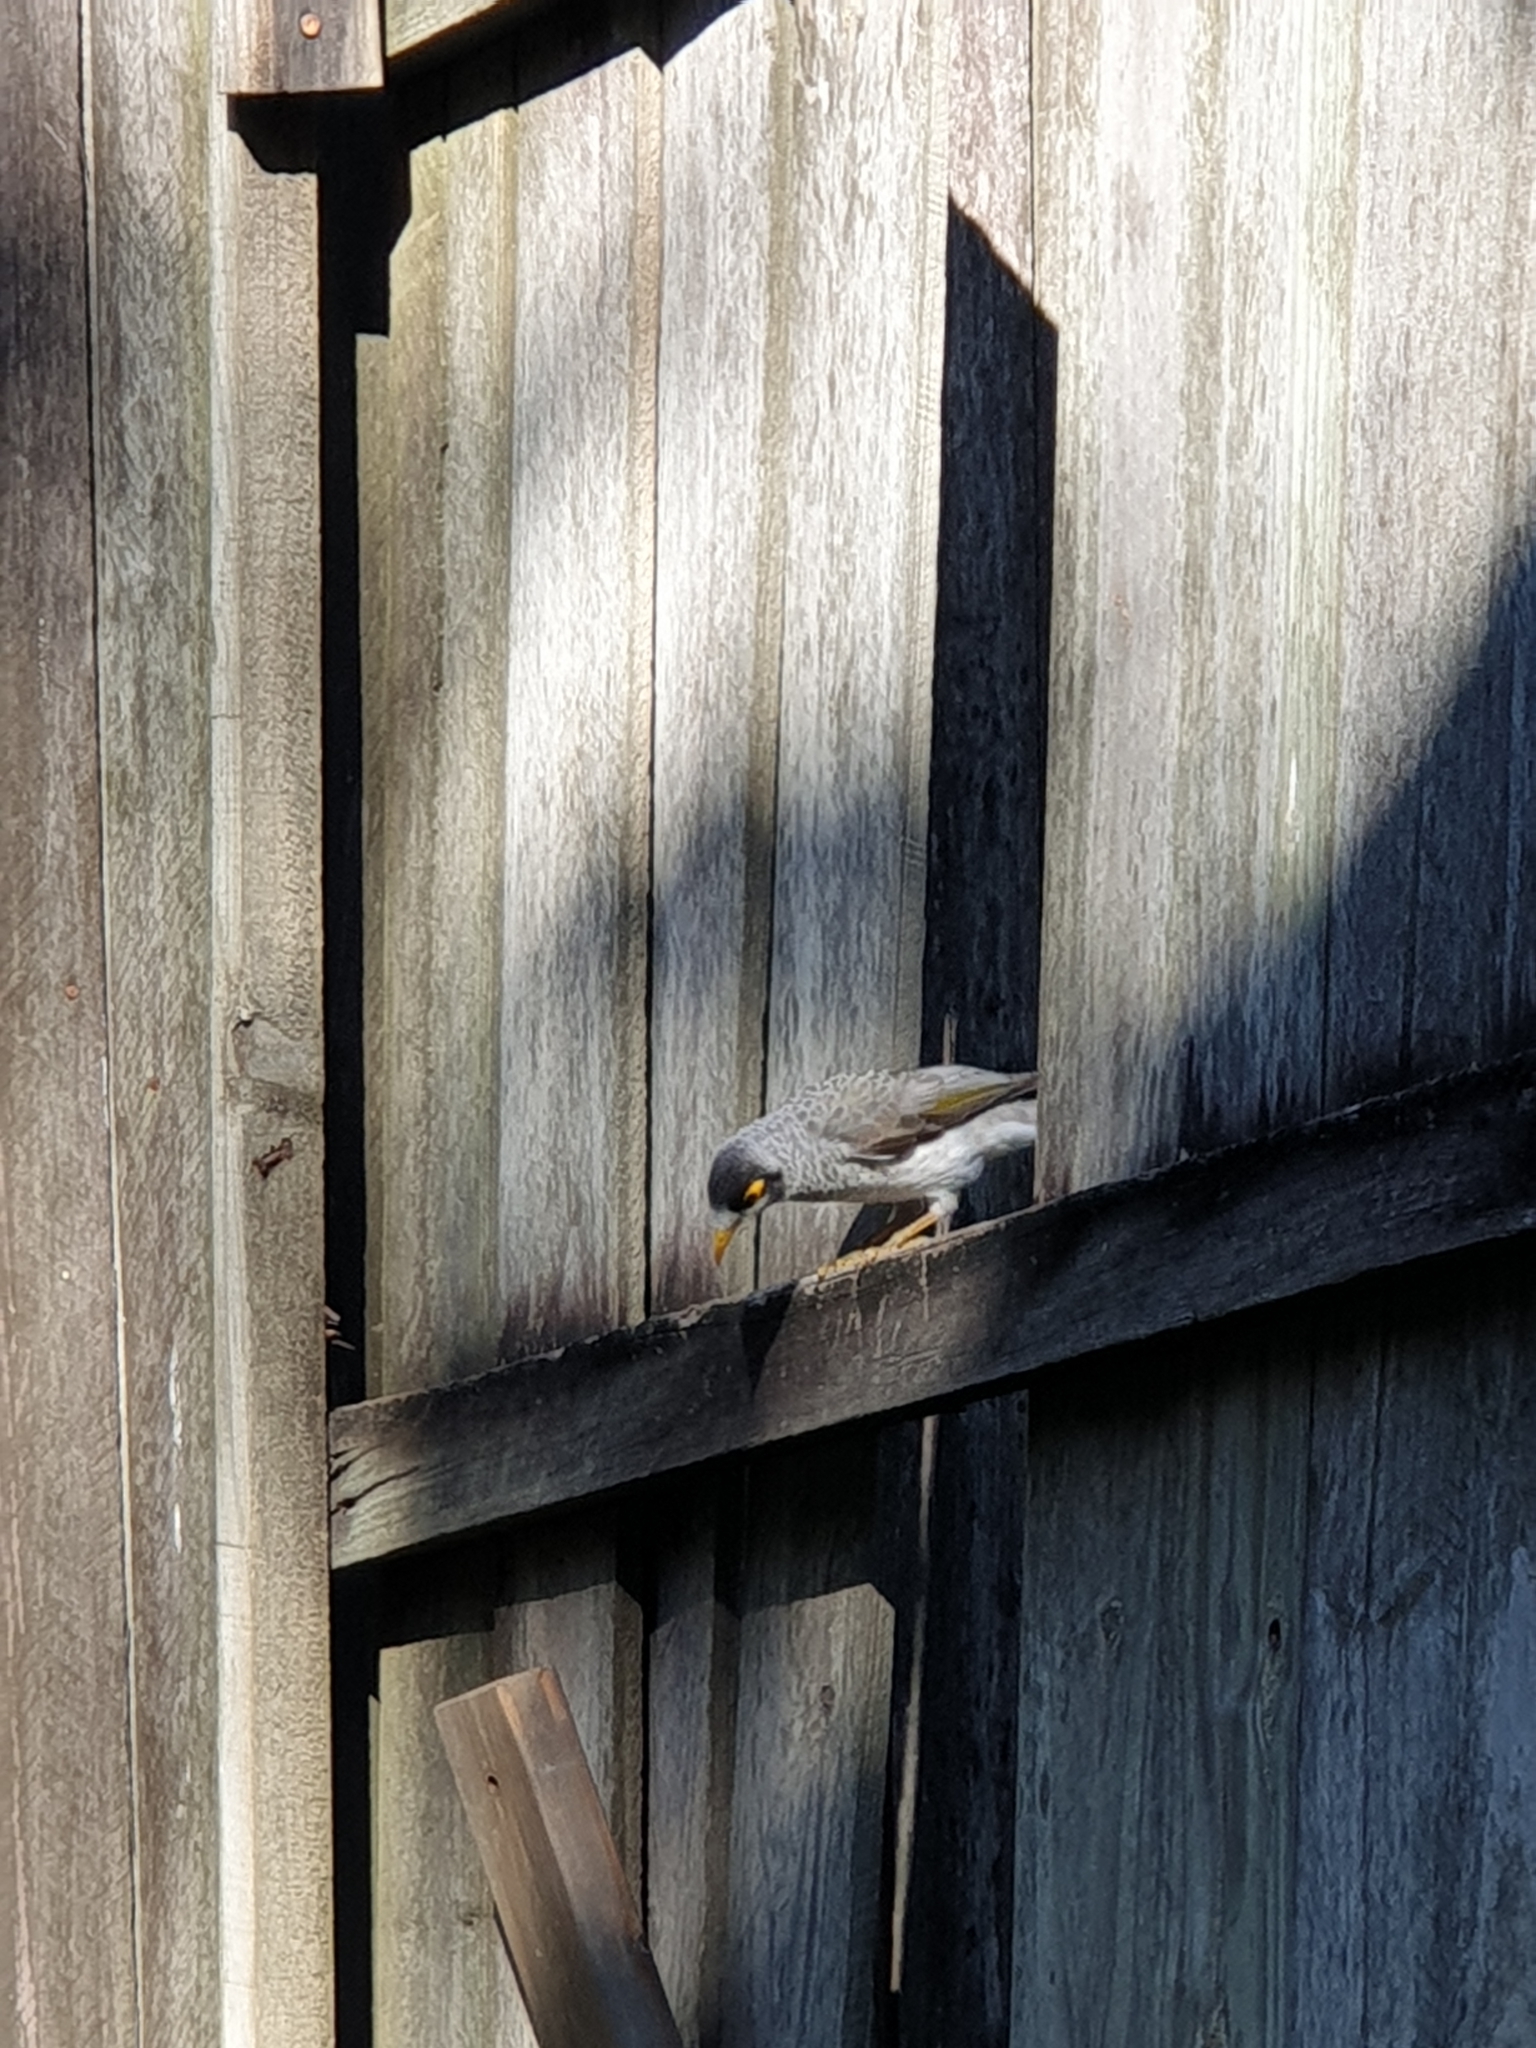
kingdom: Animalia
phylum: Chordata
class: Aves
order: Passeriformes
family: Meliphagidae
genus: Manorina
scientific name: Manorina melanocephala
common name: Noisy miner
